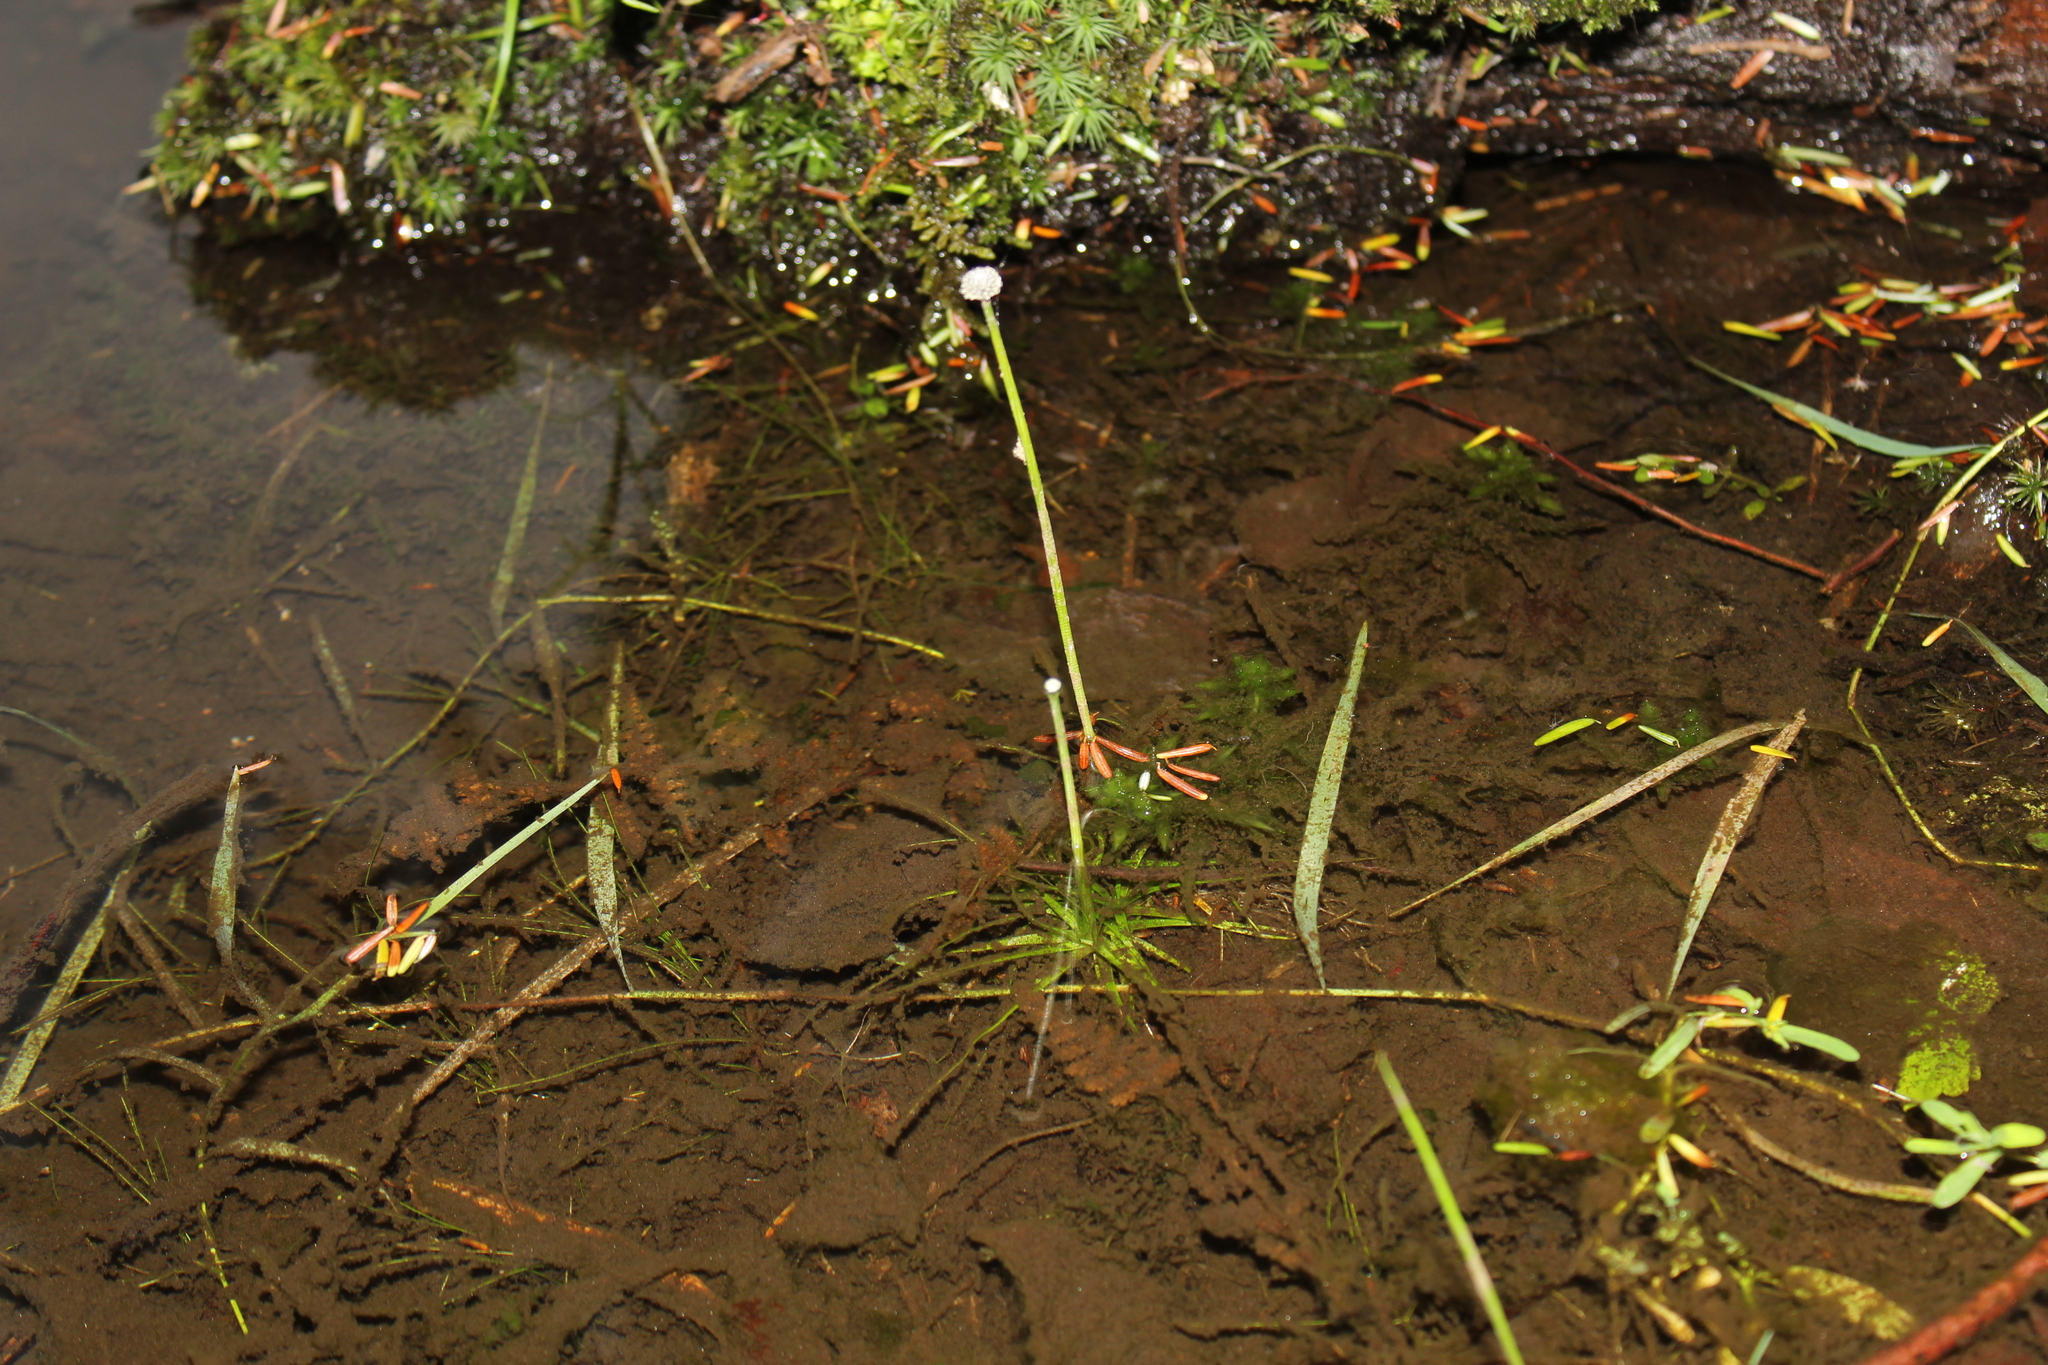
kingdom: Plantae
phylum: Tracheophyta
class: Liliopsida
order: Poales
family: Eriocaulaceae
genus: Eriocaulon
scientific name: Eriocaulon aquaticum
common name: Pipewort
